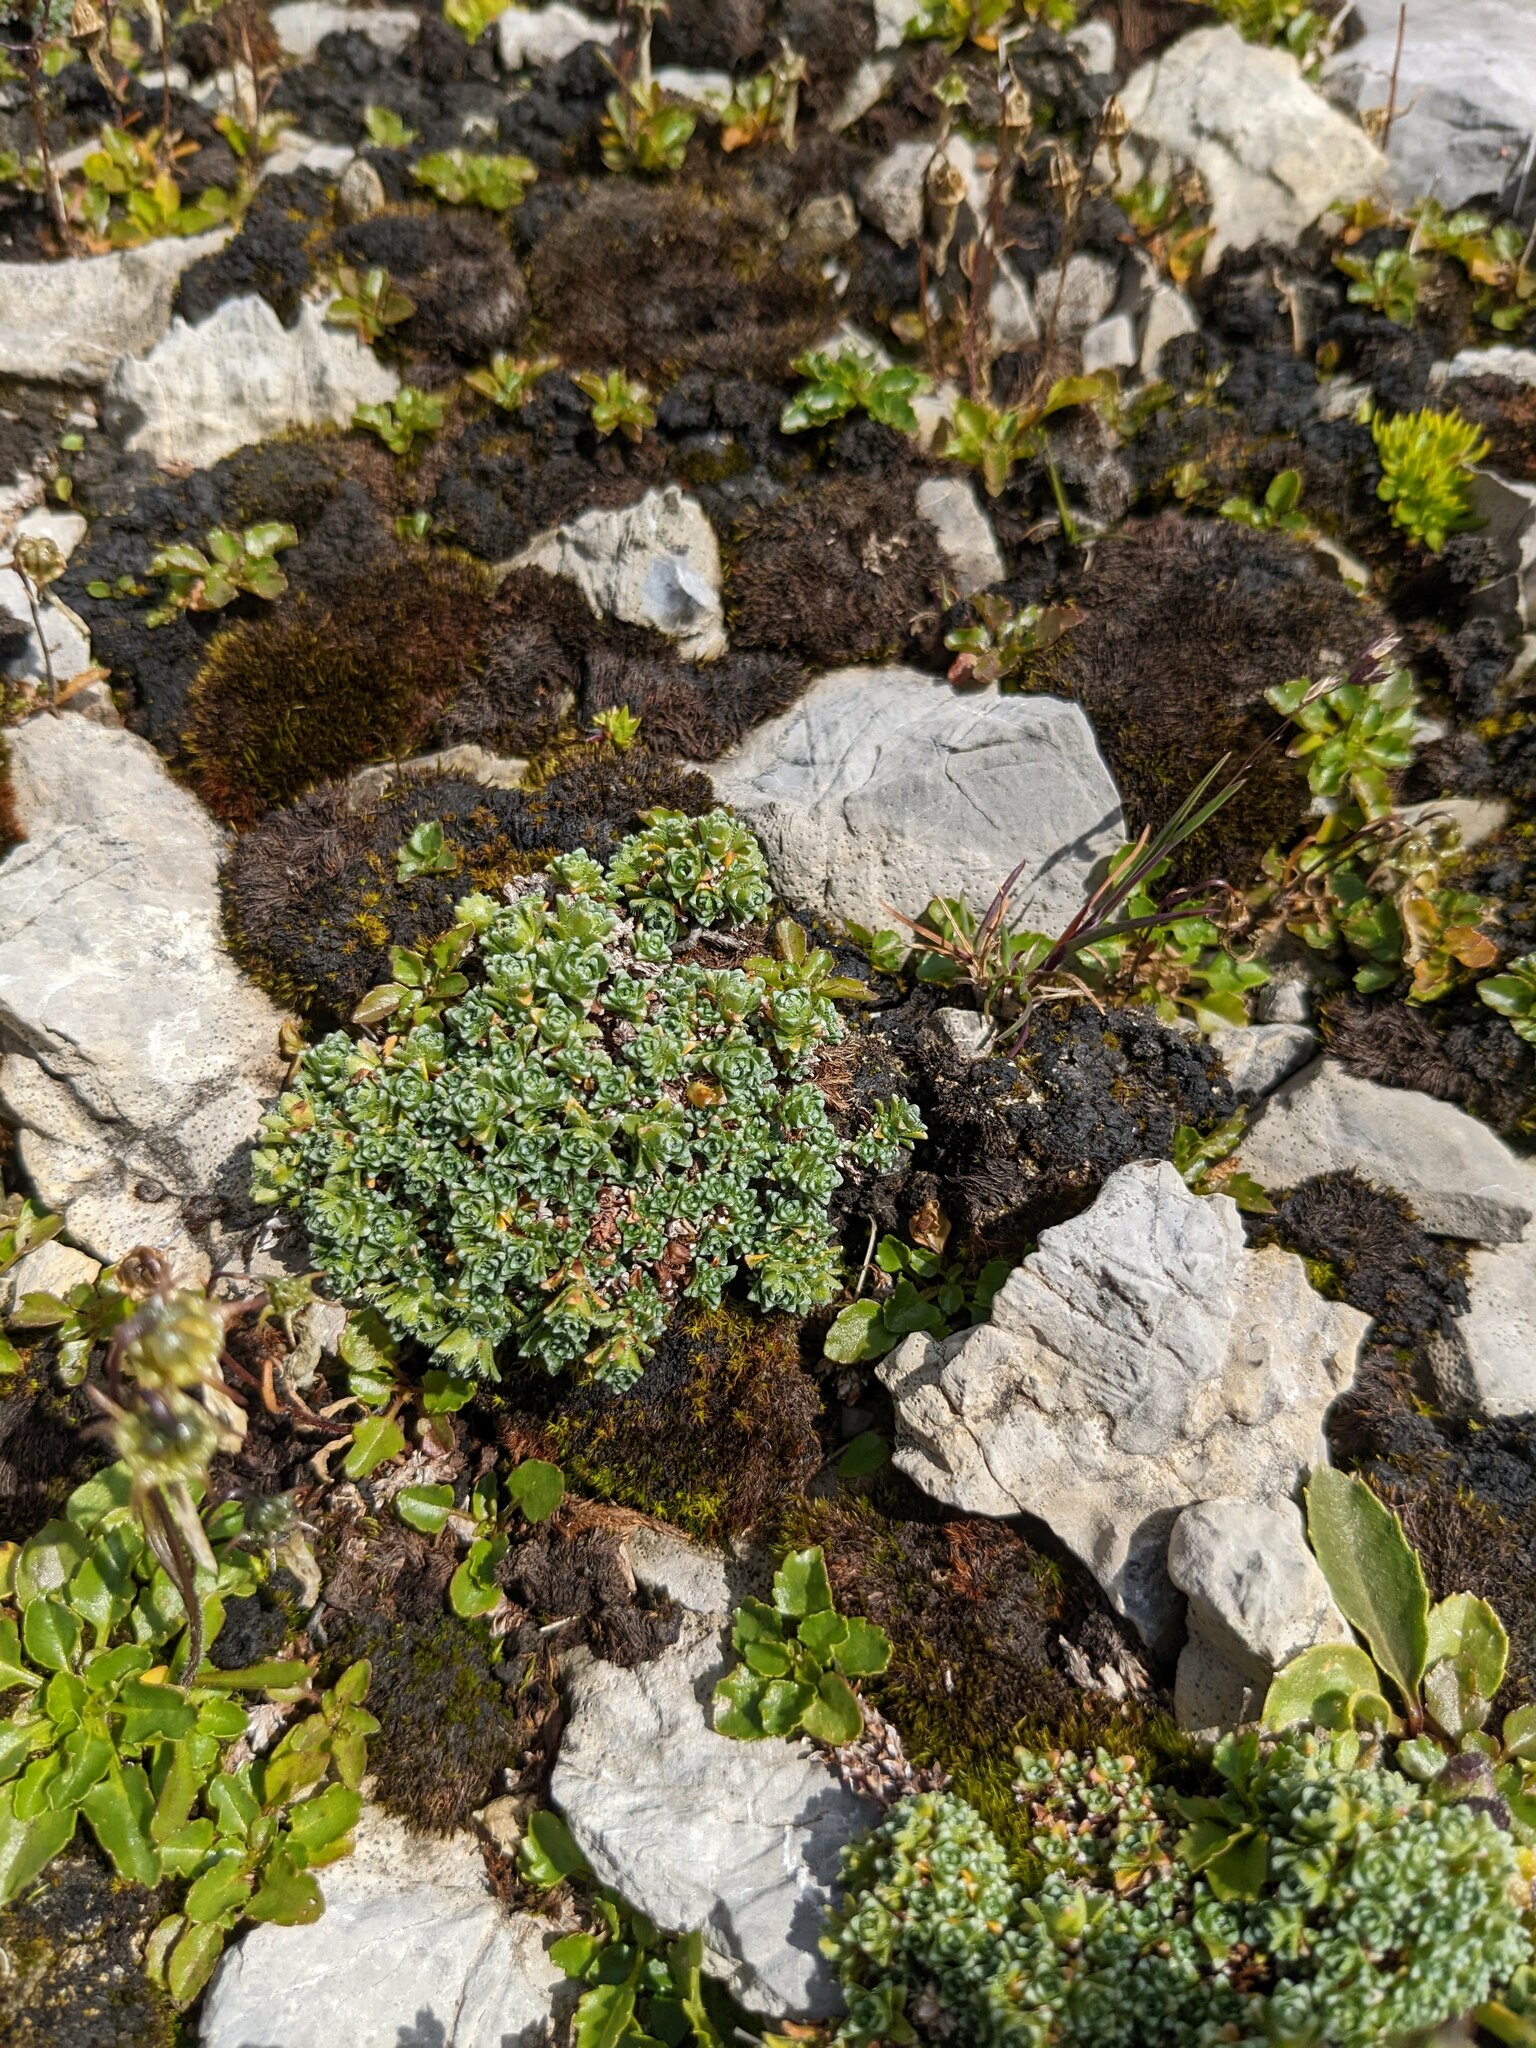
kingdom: Plantae
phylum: Tracheophyta
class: Magnoliopsida
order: Saxifragales
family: Saxifragaceae
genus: Saxifraga
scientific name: Saxifraga oppositifolia
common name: Purple saxifrage
